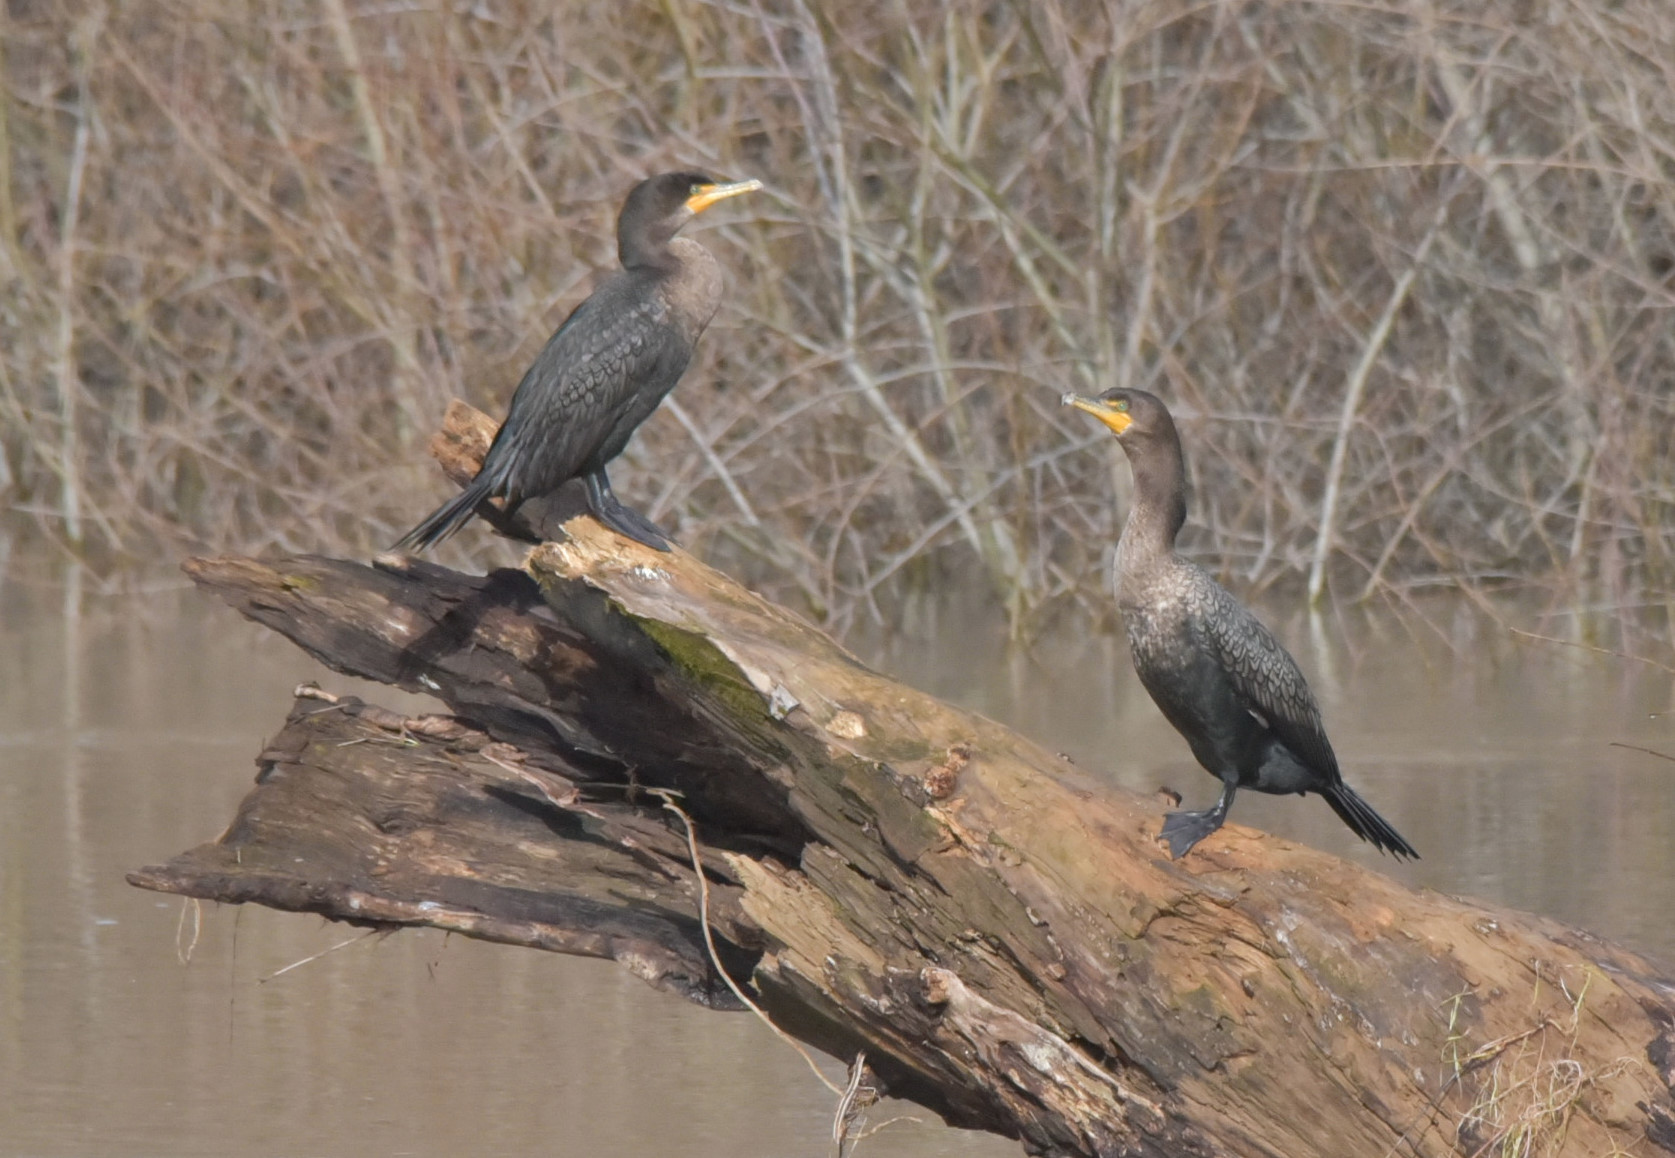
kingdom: Animalia
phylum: Chordata
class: Aves
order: Suliformes
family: Phalacrocoracidae
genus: Phalacrocorax
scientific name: Phalacrocorax auritus
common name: Double-crested cormorant
